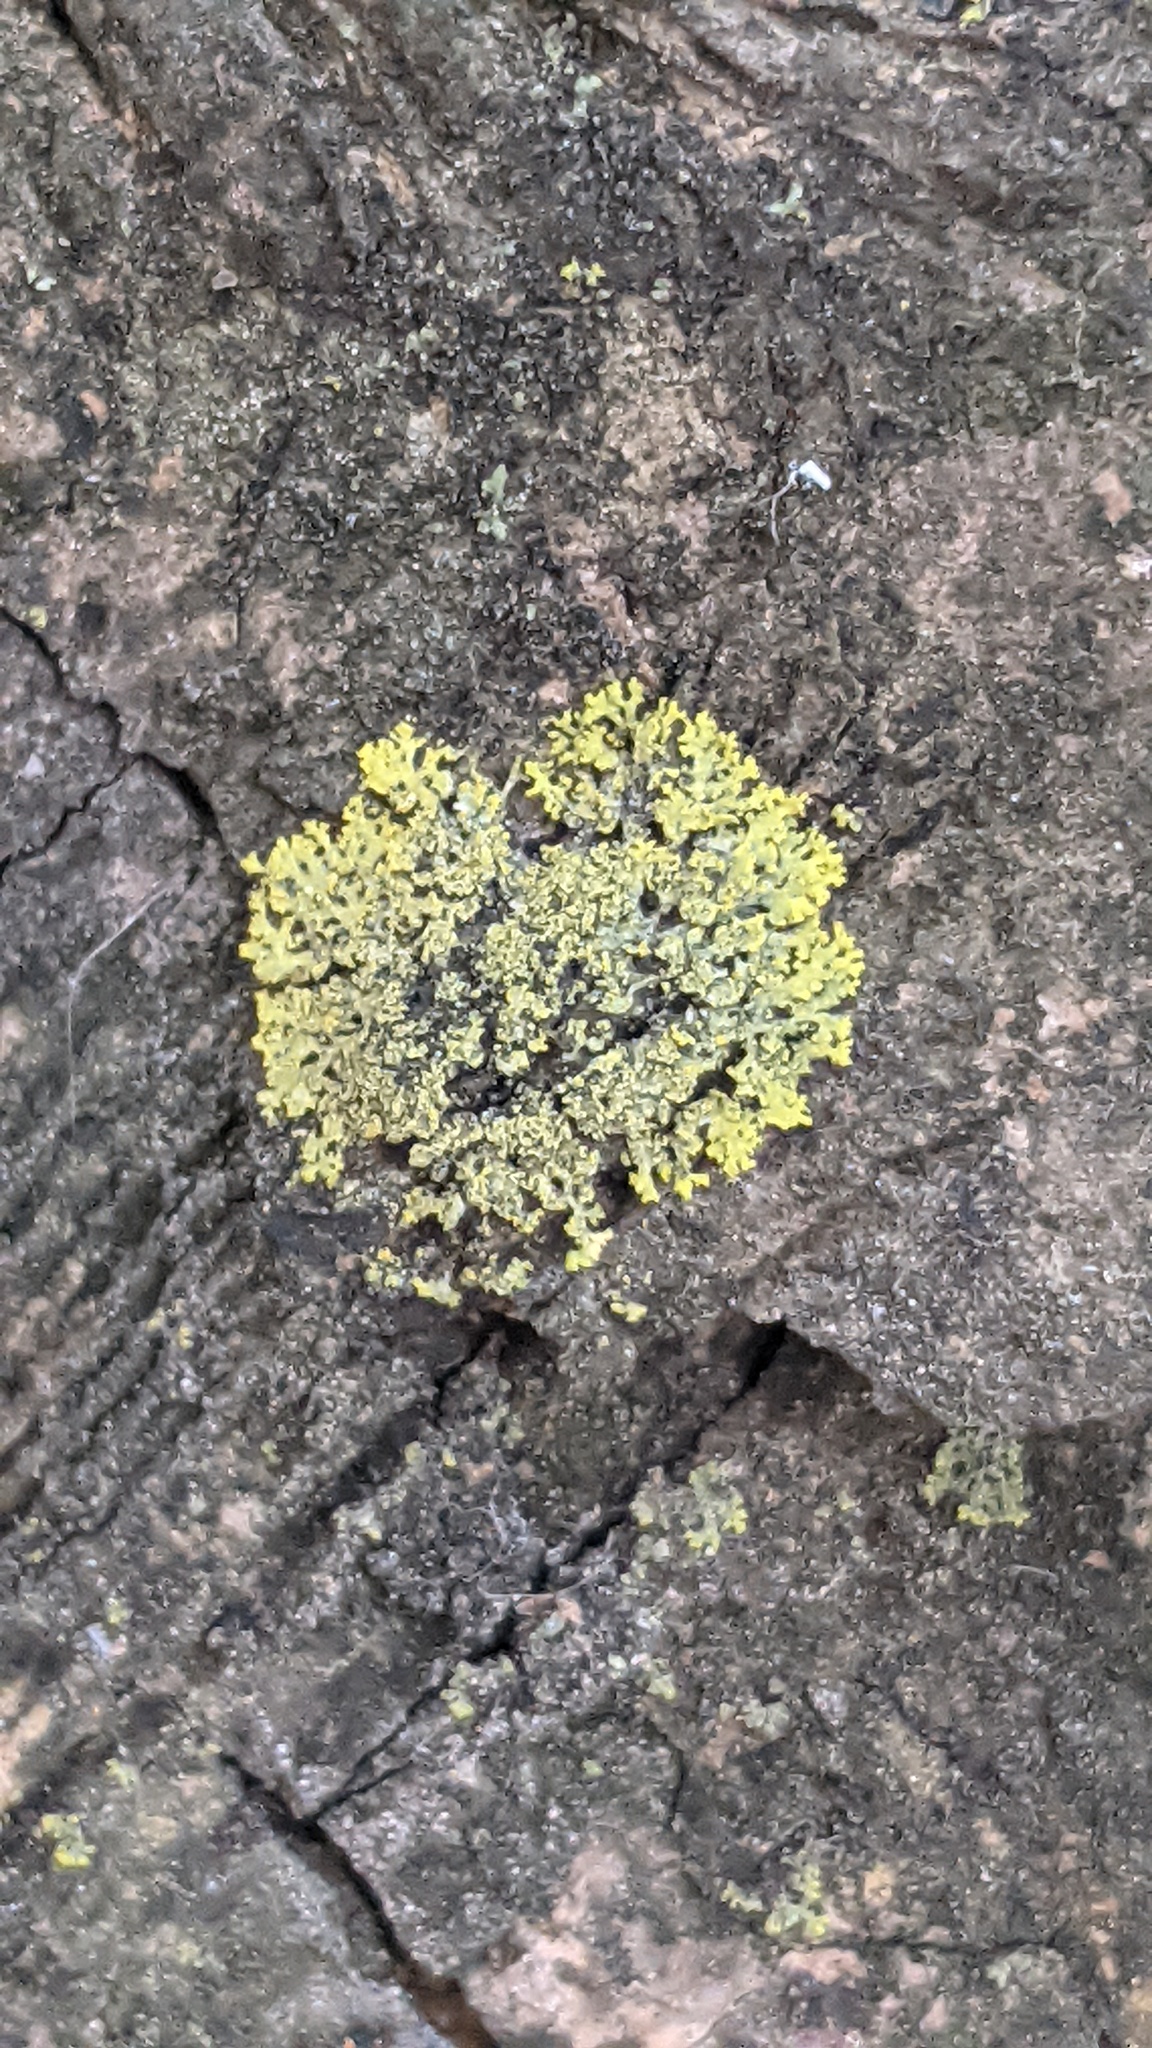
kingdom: Fungi
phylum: Ascomycota
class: Candelariomycetes
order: Candelariales
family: Candelariaceae
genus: Candelaria
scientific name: Candelaria concolor
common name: Candleflame lichen
